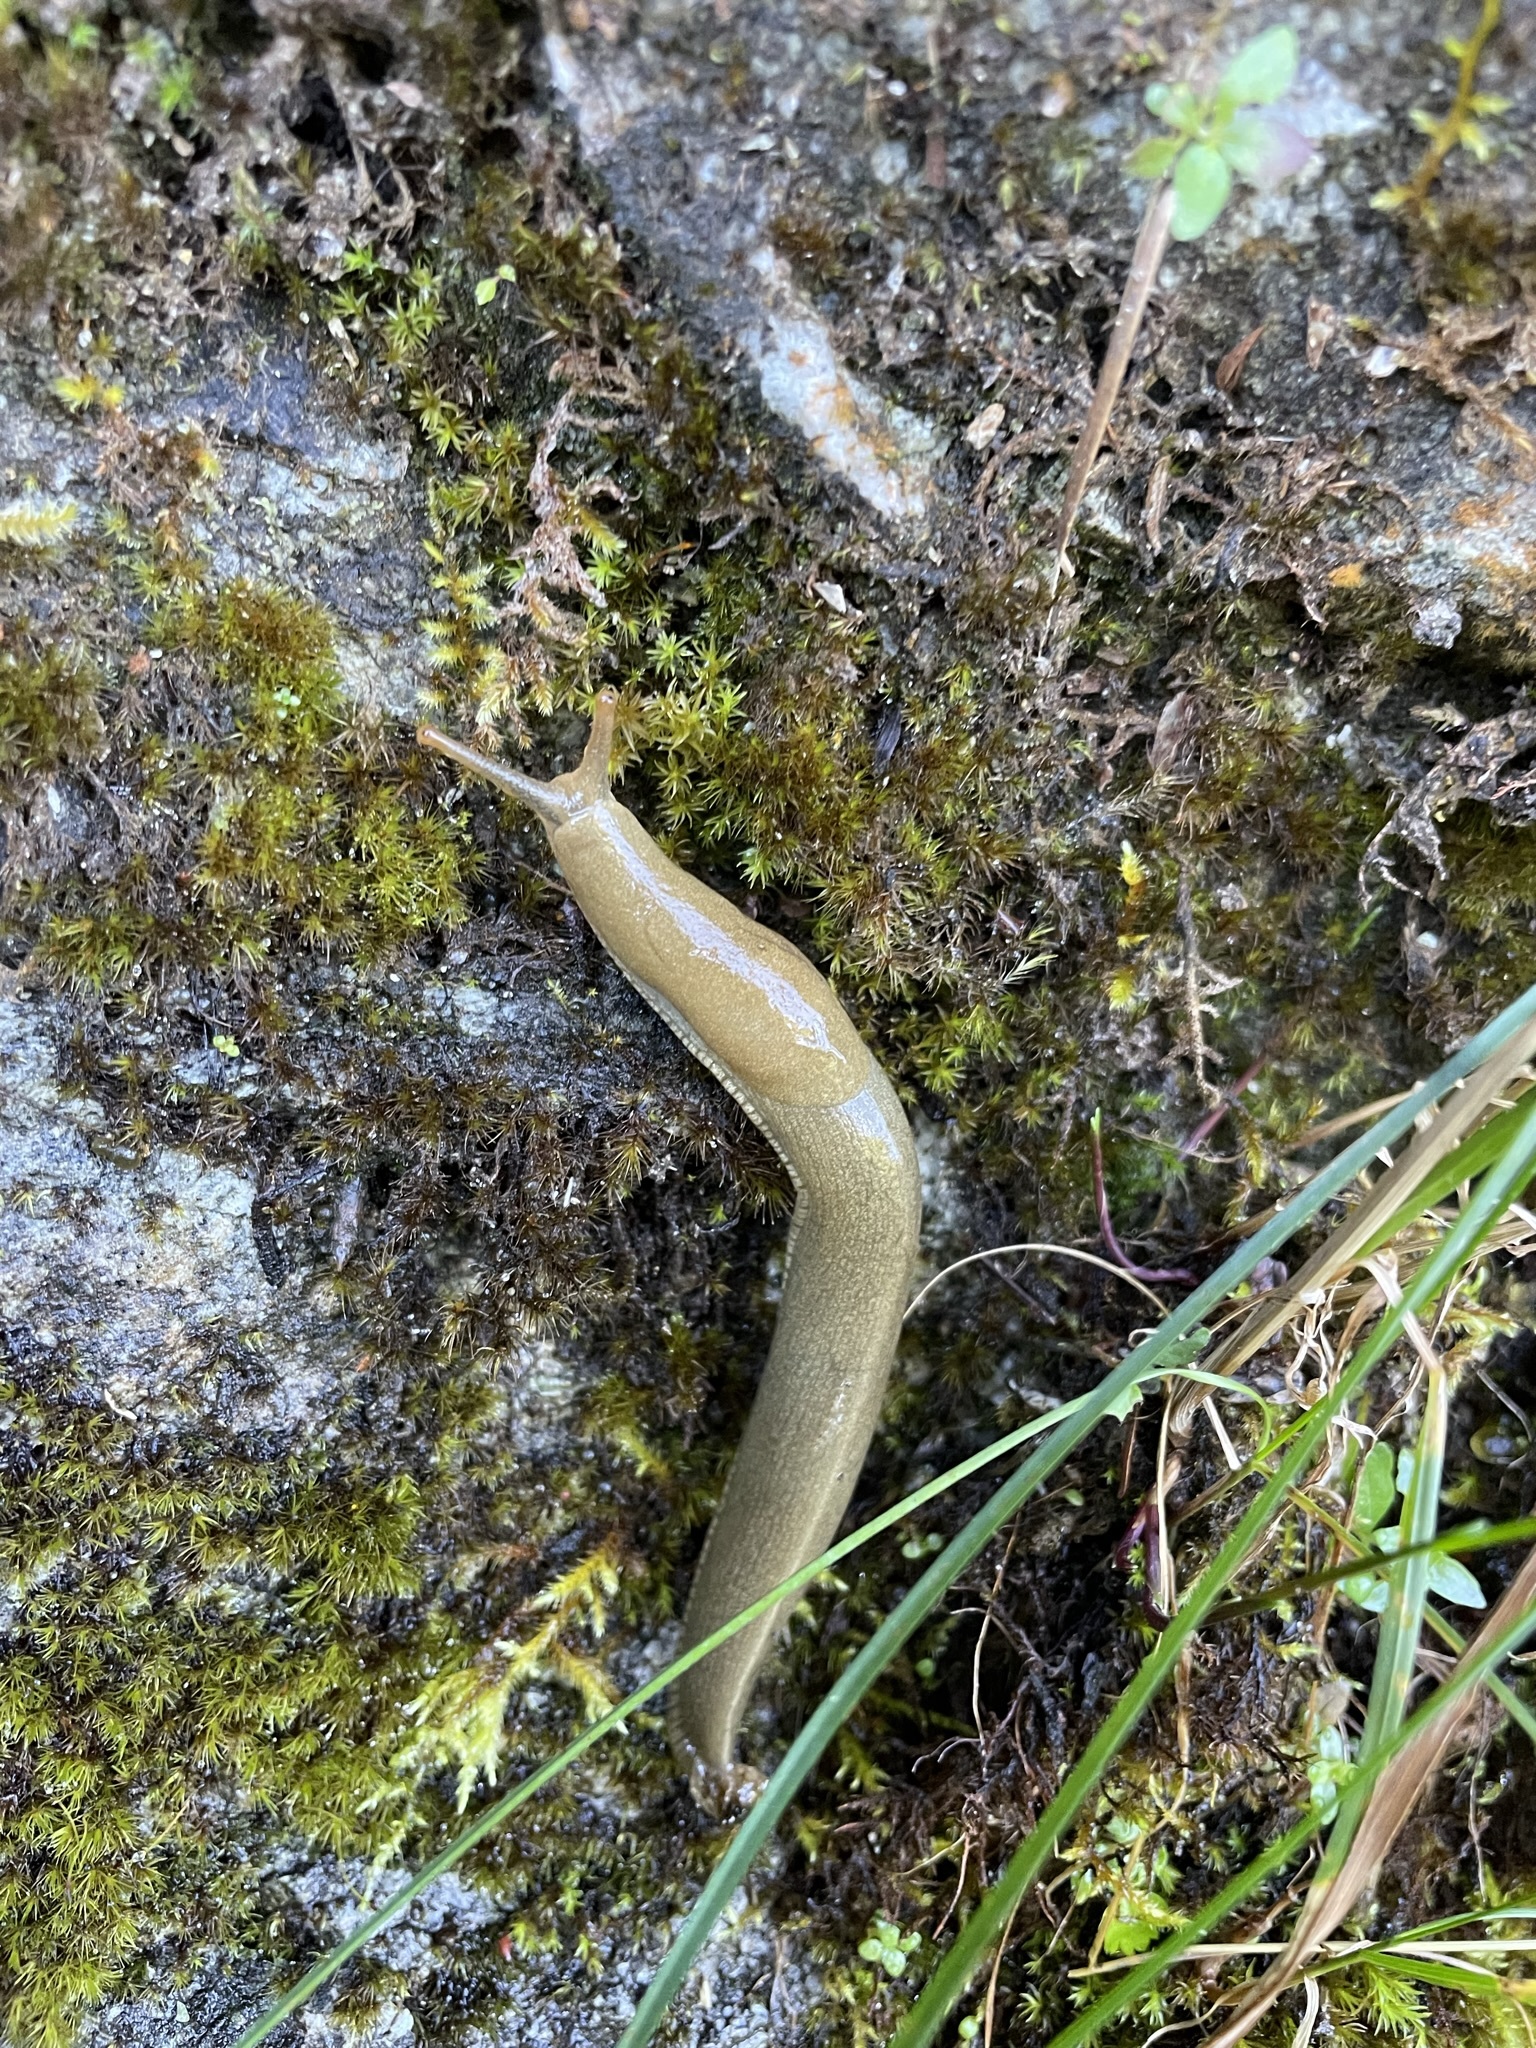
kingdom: Animalia
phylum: Mollusca
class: Gastropoda
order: Stylommatophora
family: Ariolimacidae
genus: Ariolimax
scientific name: Ariolimax columbianus
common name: Pacific banana slug
